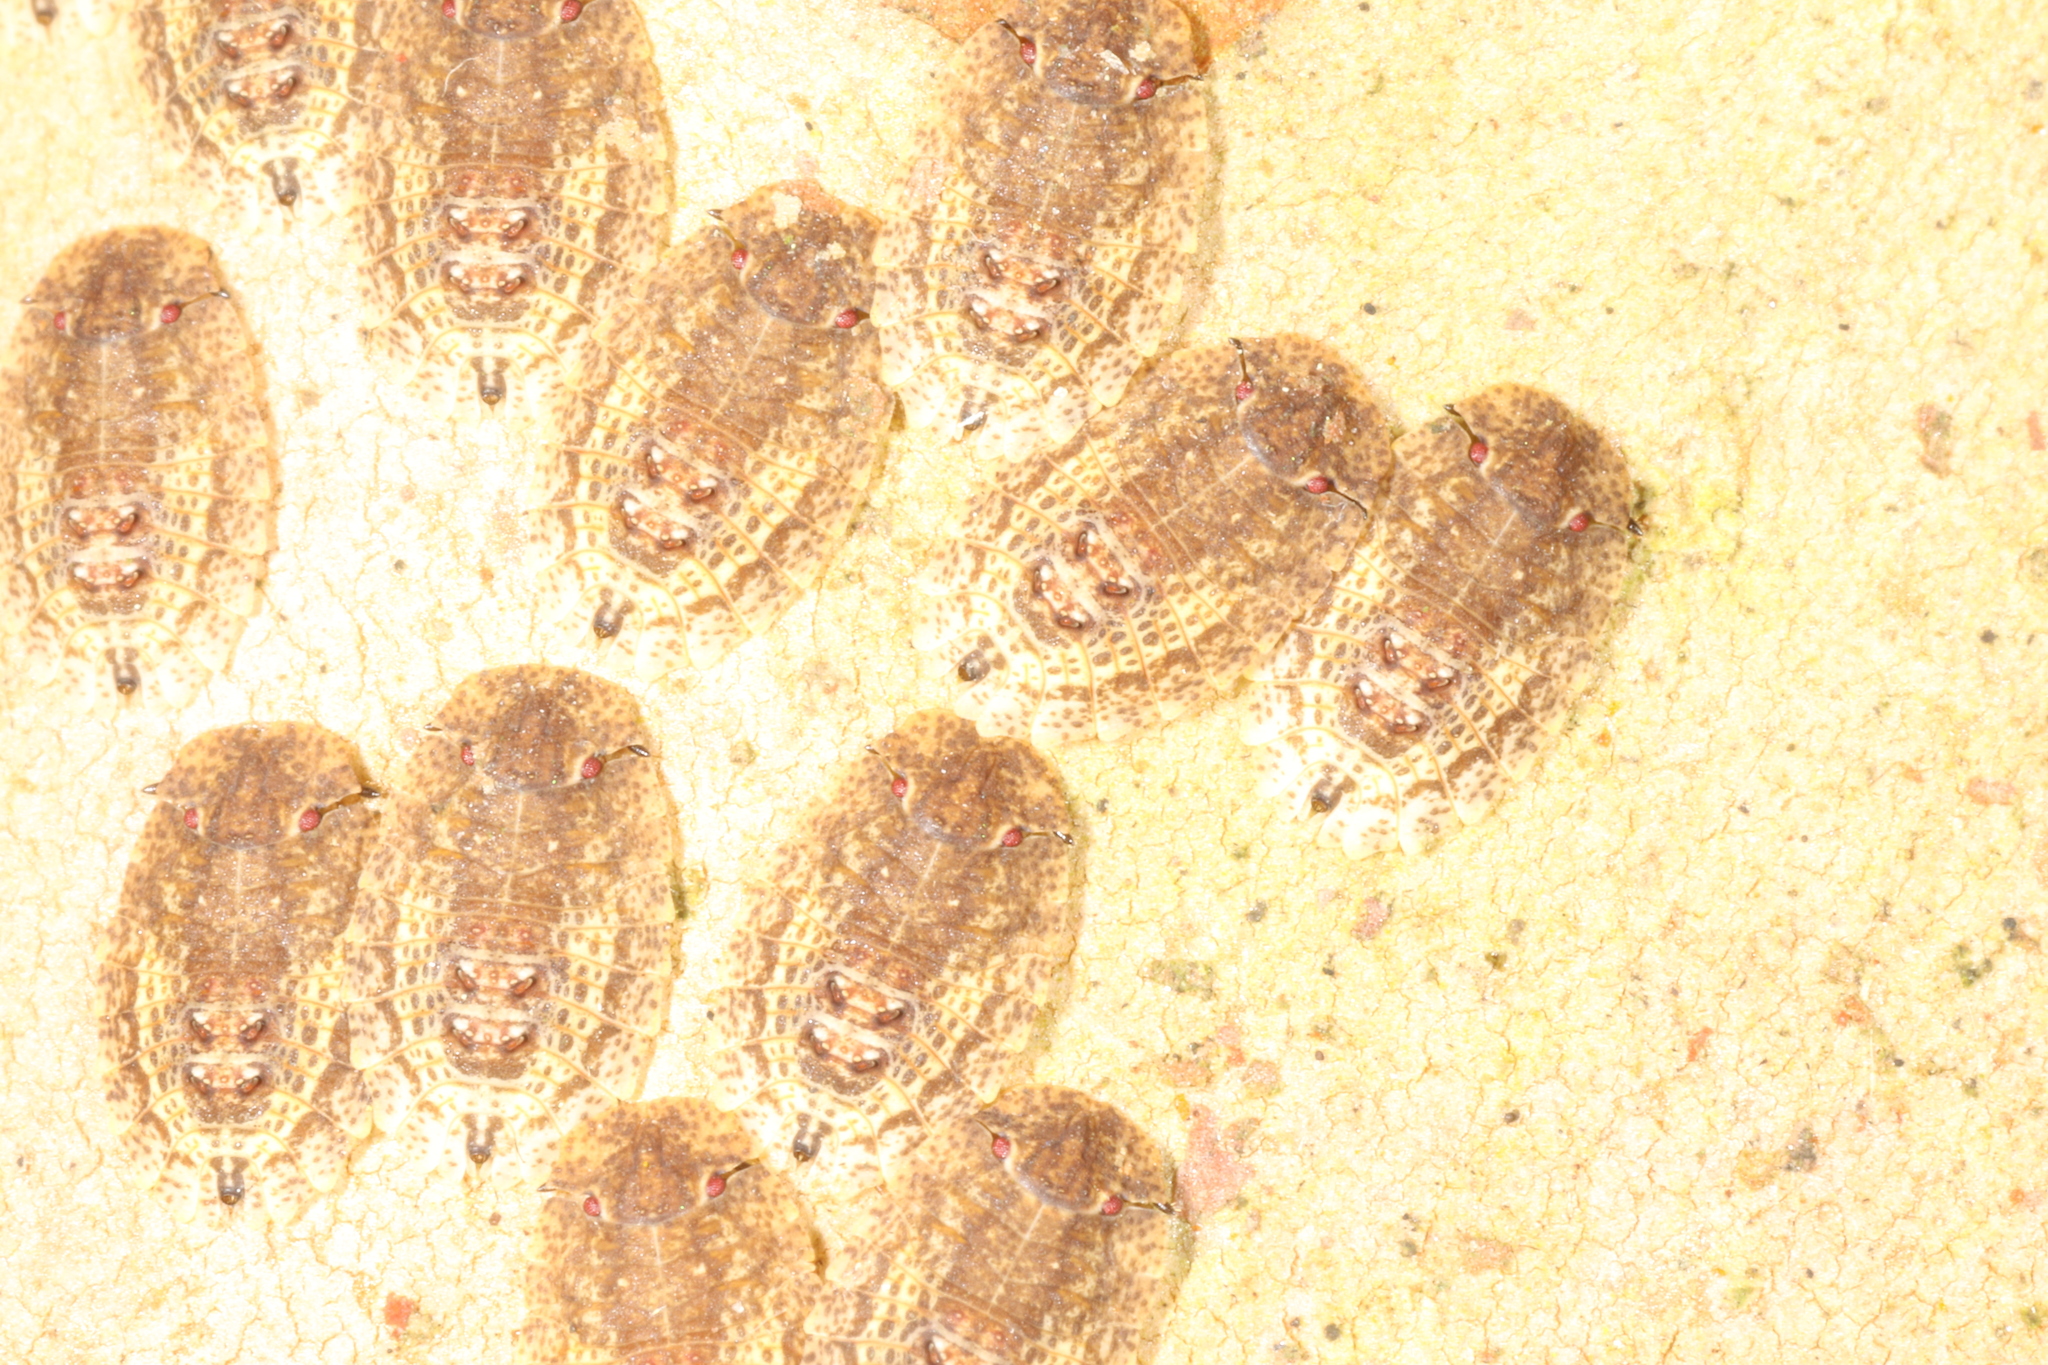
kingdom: Animalia
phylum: Arthropoda
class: Insecta
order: Hemiptera
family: Phleides
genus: Phloea
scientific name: Phloea
